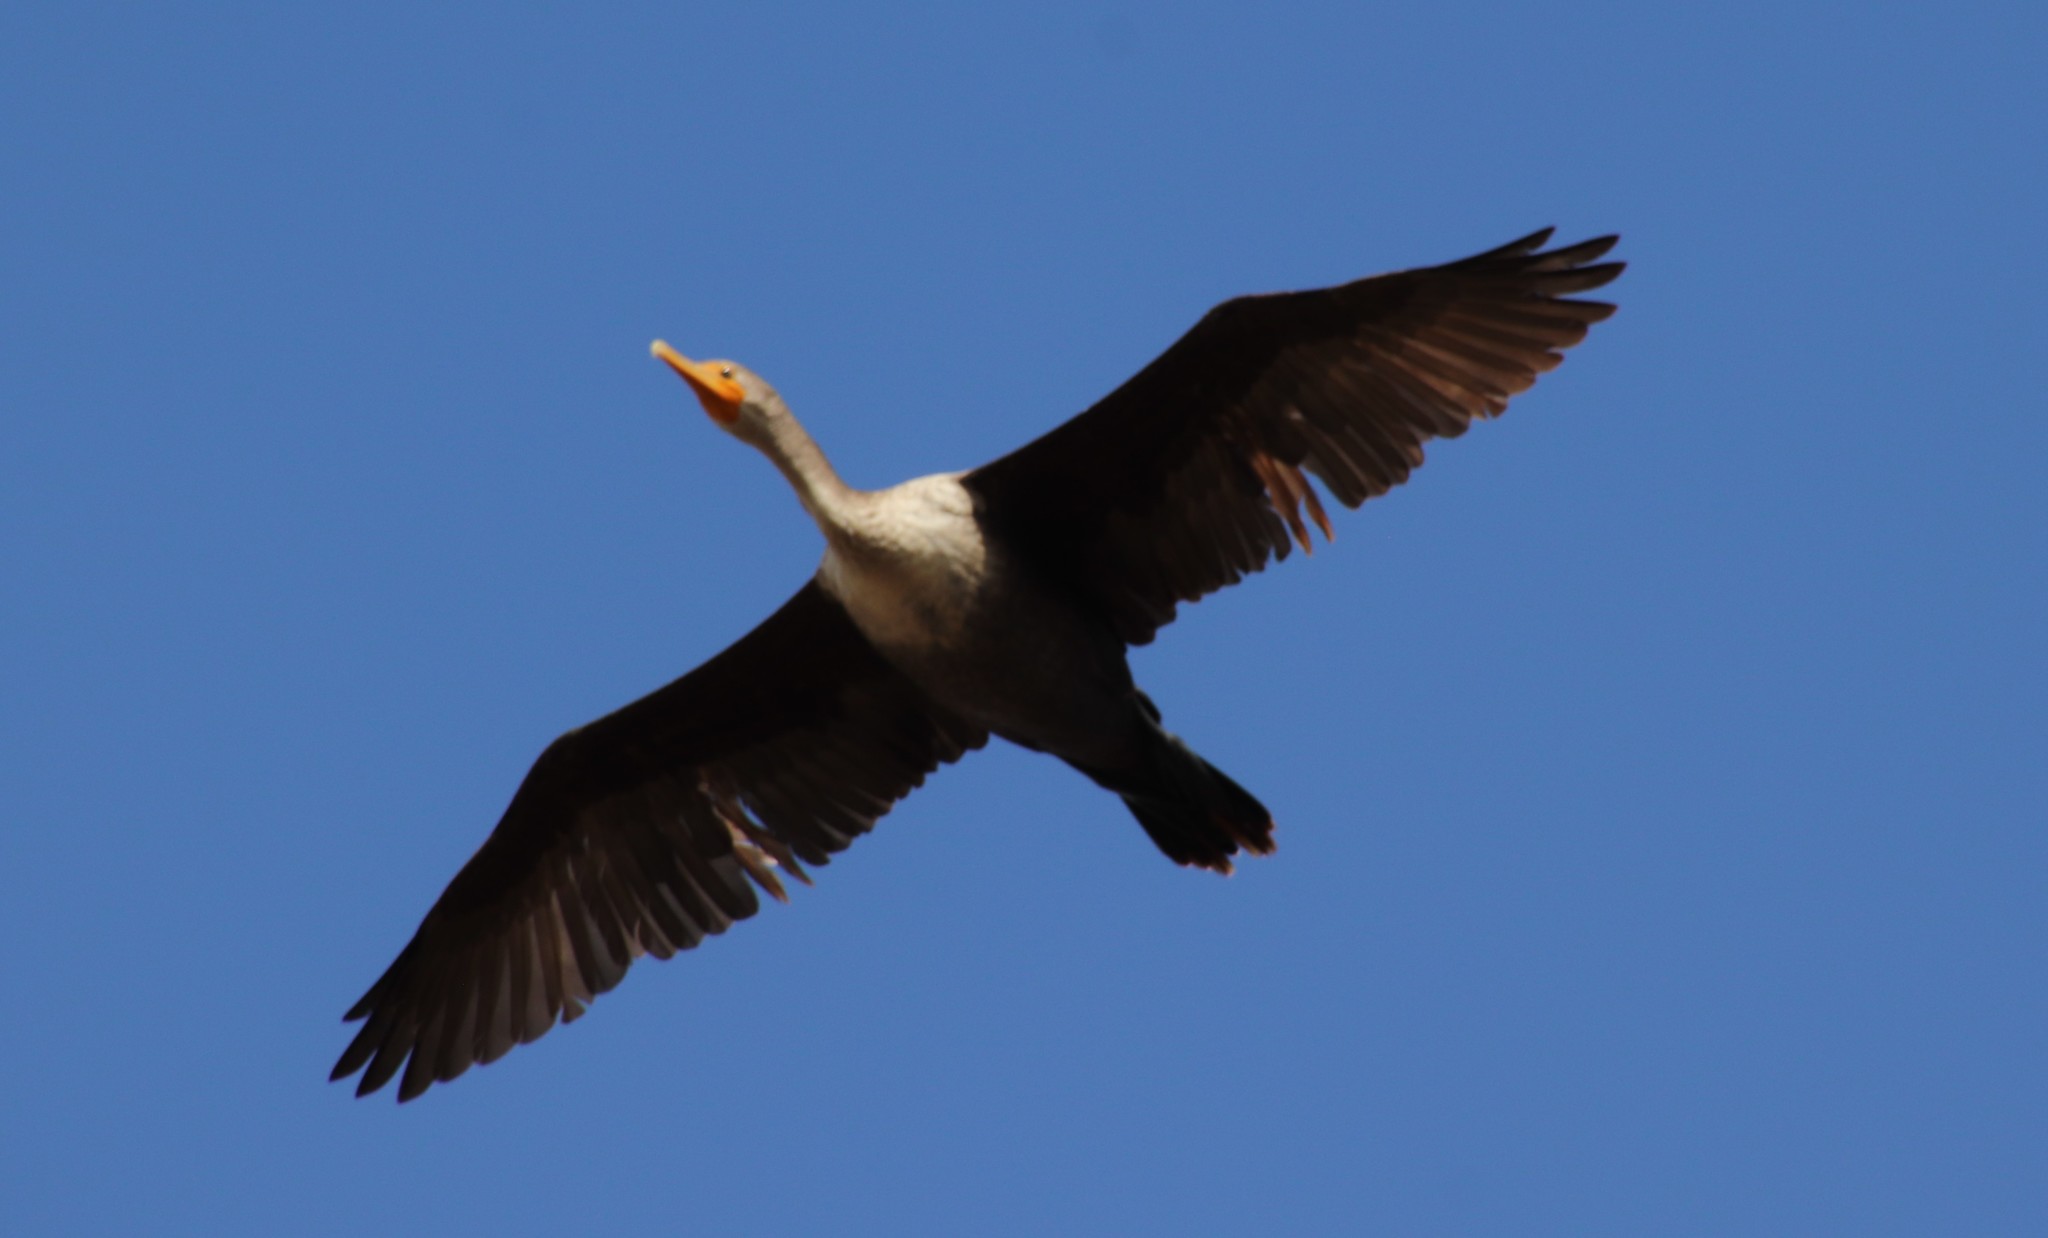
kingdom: Animalia
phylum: Chordata
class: Aves
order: Suliformes
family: Phalacrocoracidae
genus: Phalacrocorax
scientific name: Phalacrocorax auritus
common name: Double-crested cormorant
